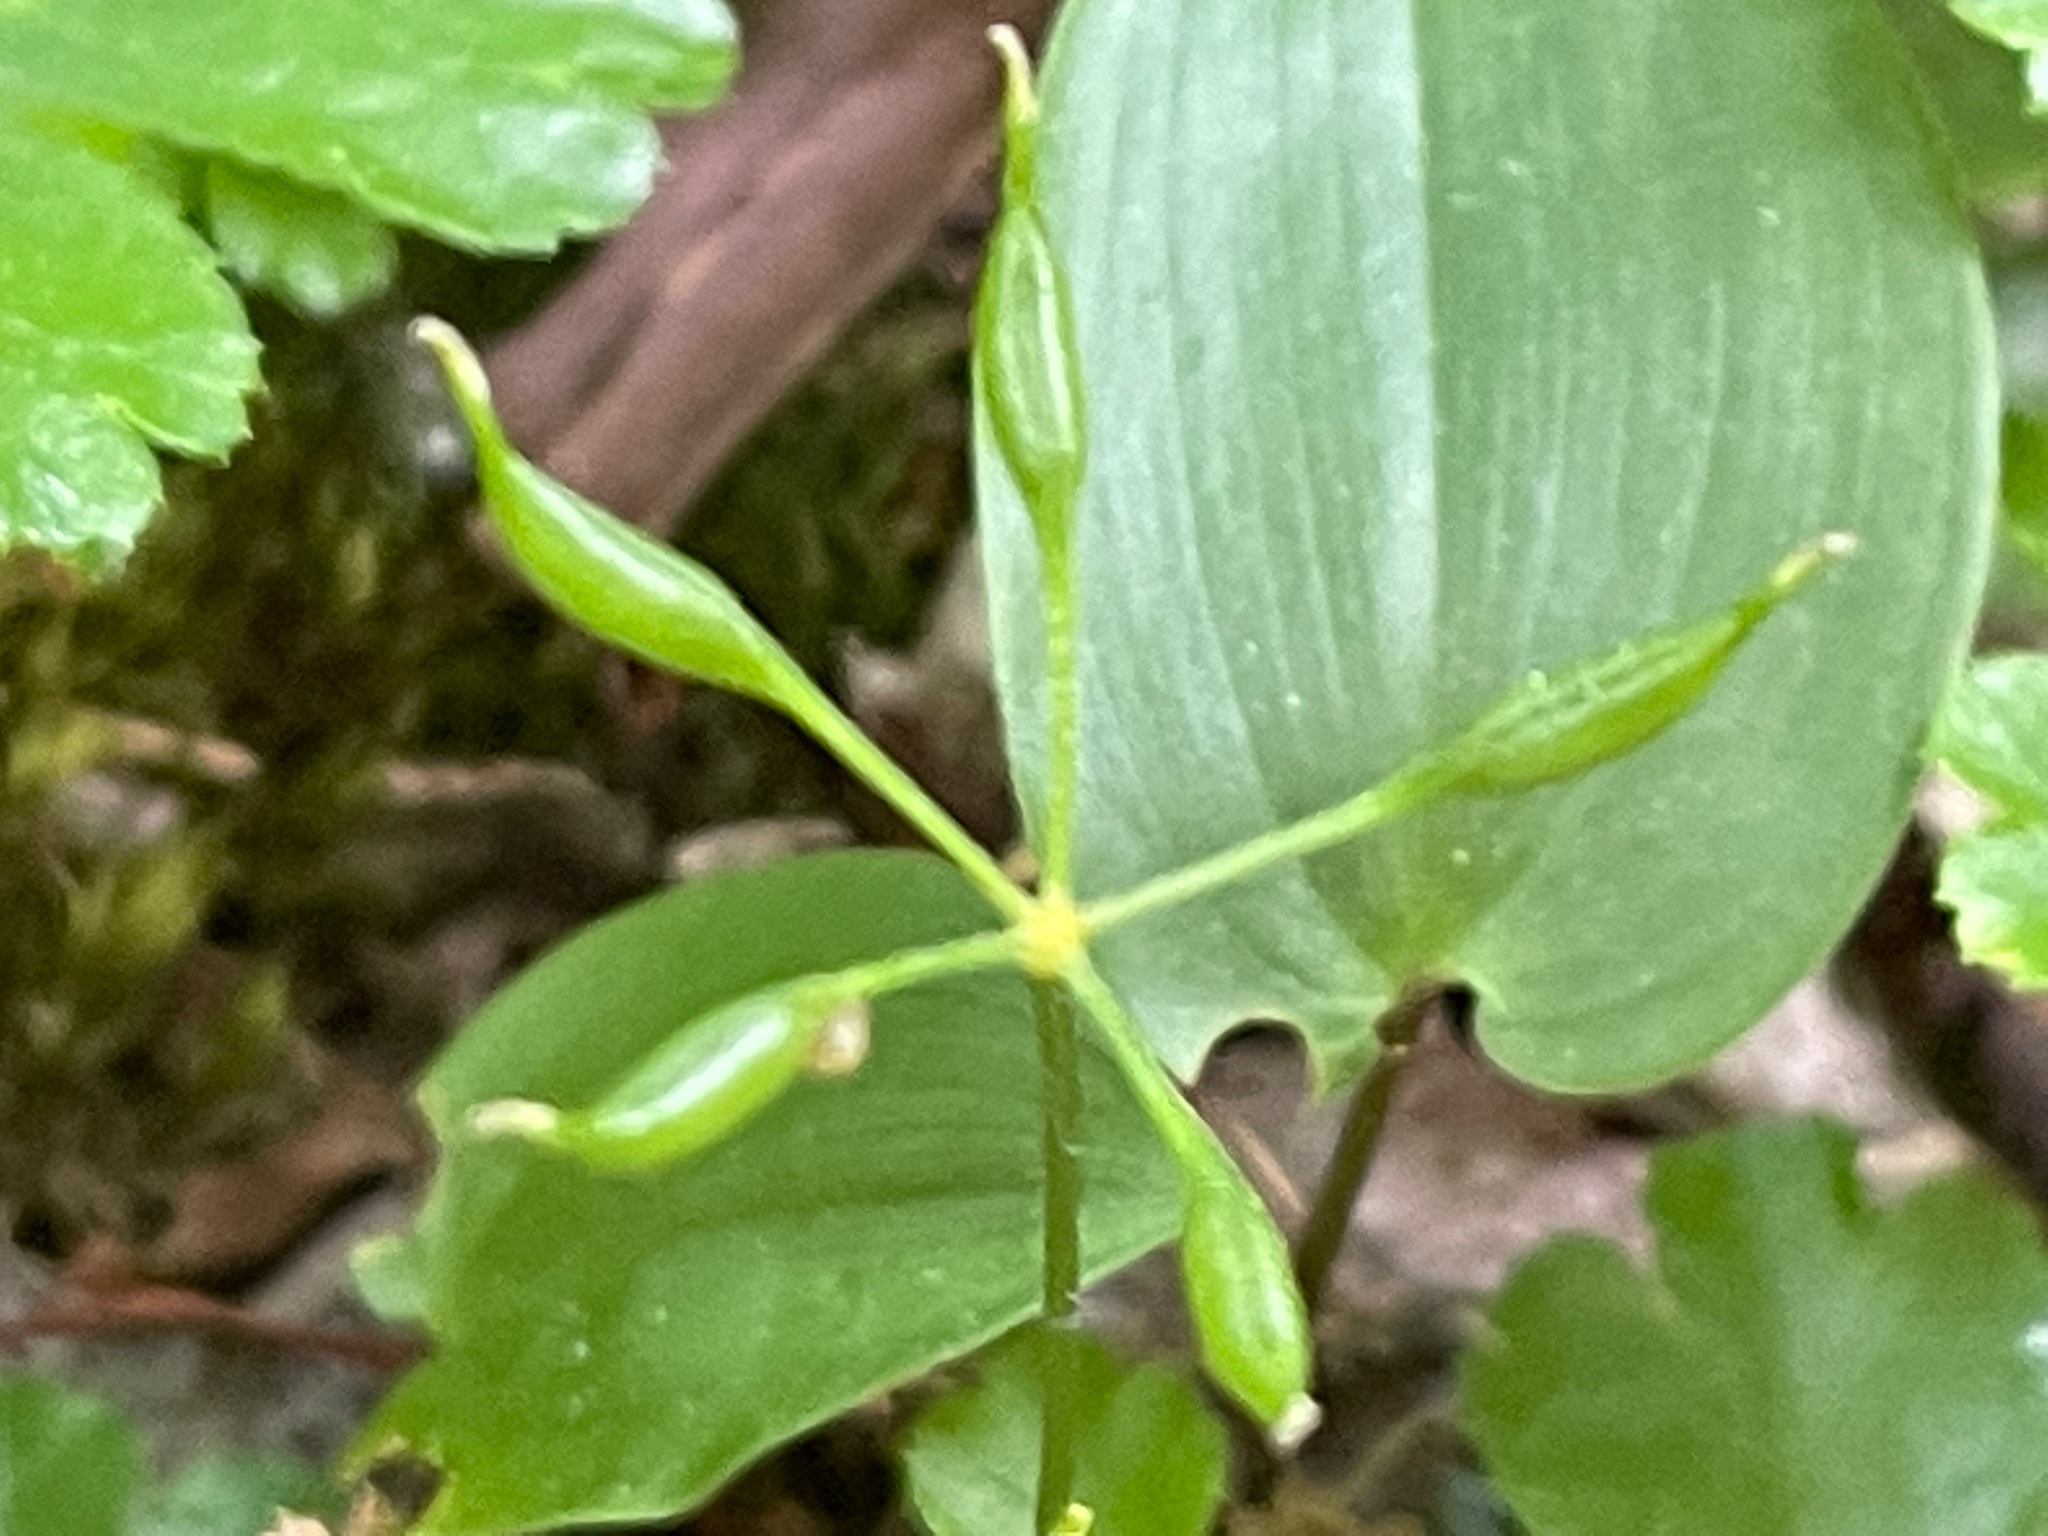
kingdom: Plantae
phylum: Tracheophyta
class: Magnoliopsida
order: Ranunculales
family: Ranunculaceae
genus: Coptis
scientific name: Coptis trifolia
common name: Canker-root
